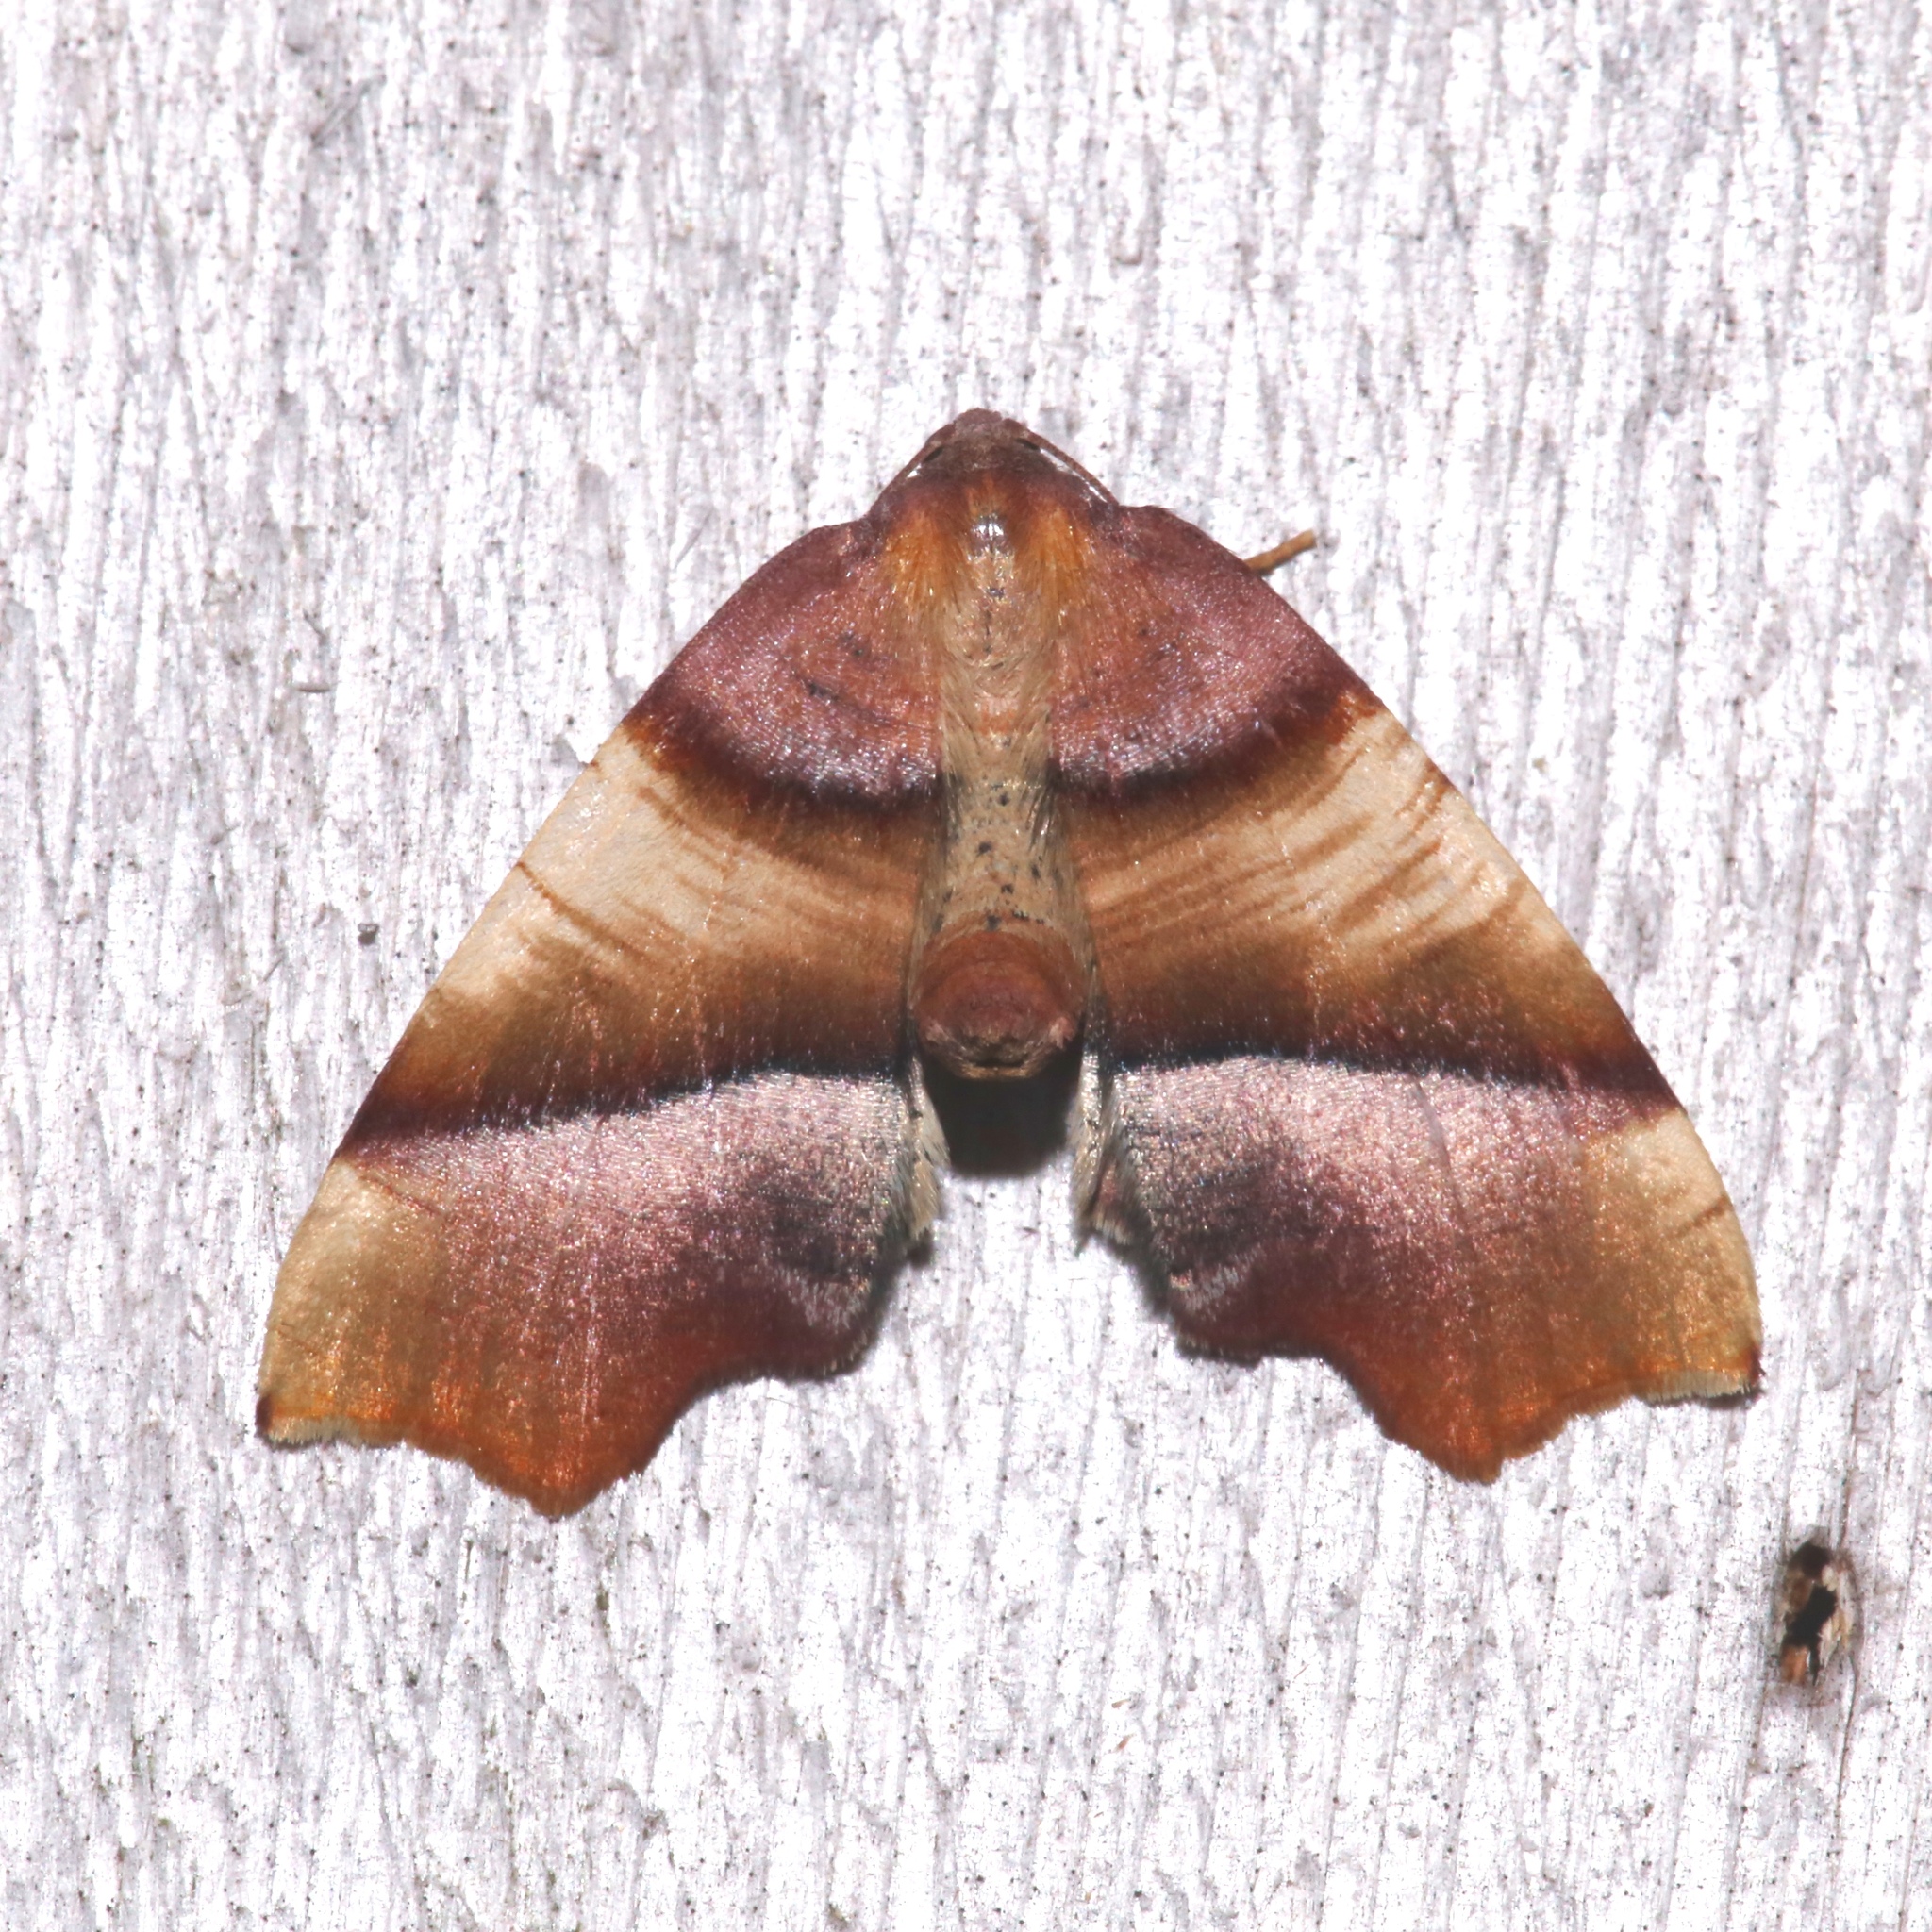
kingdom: Animalia
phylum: Arthropoda
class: Insecta
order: Lepidoptera
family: Geometridae
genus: Plagodis
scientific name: Plagodis phlogosaria
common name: Straight-lined plagodis
